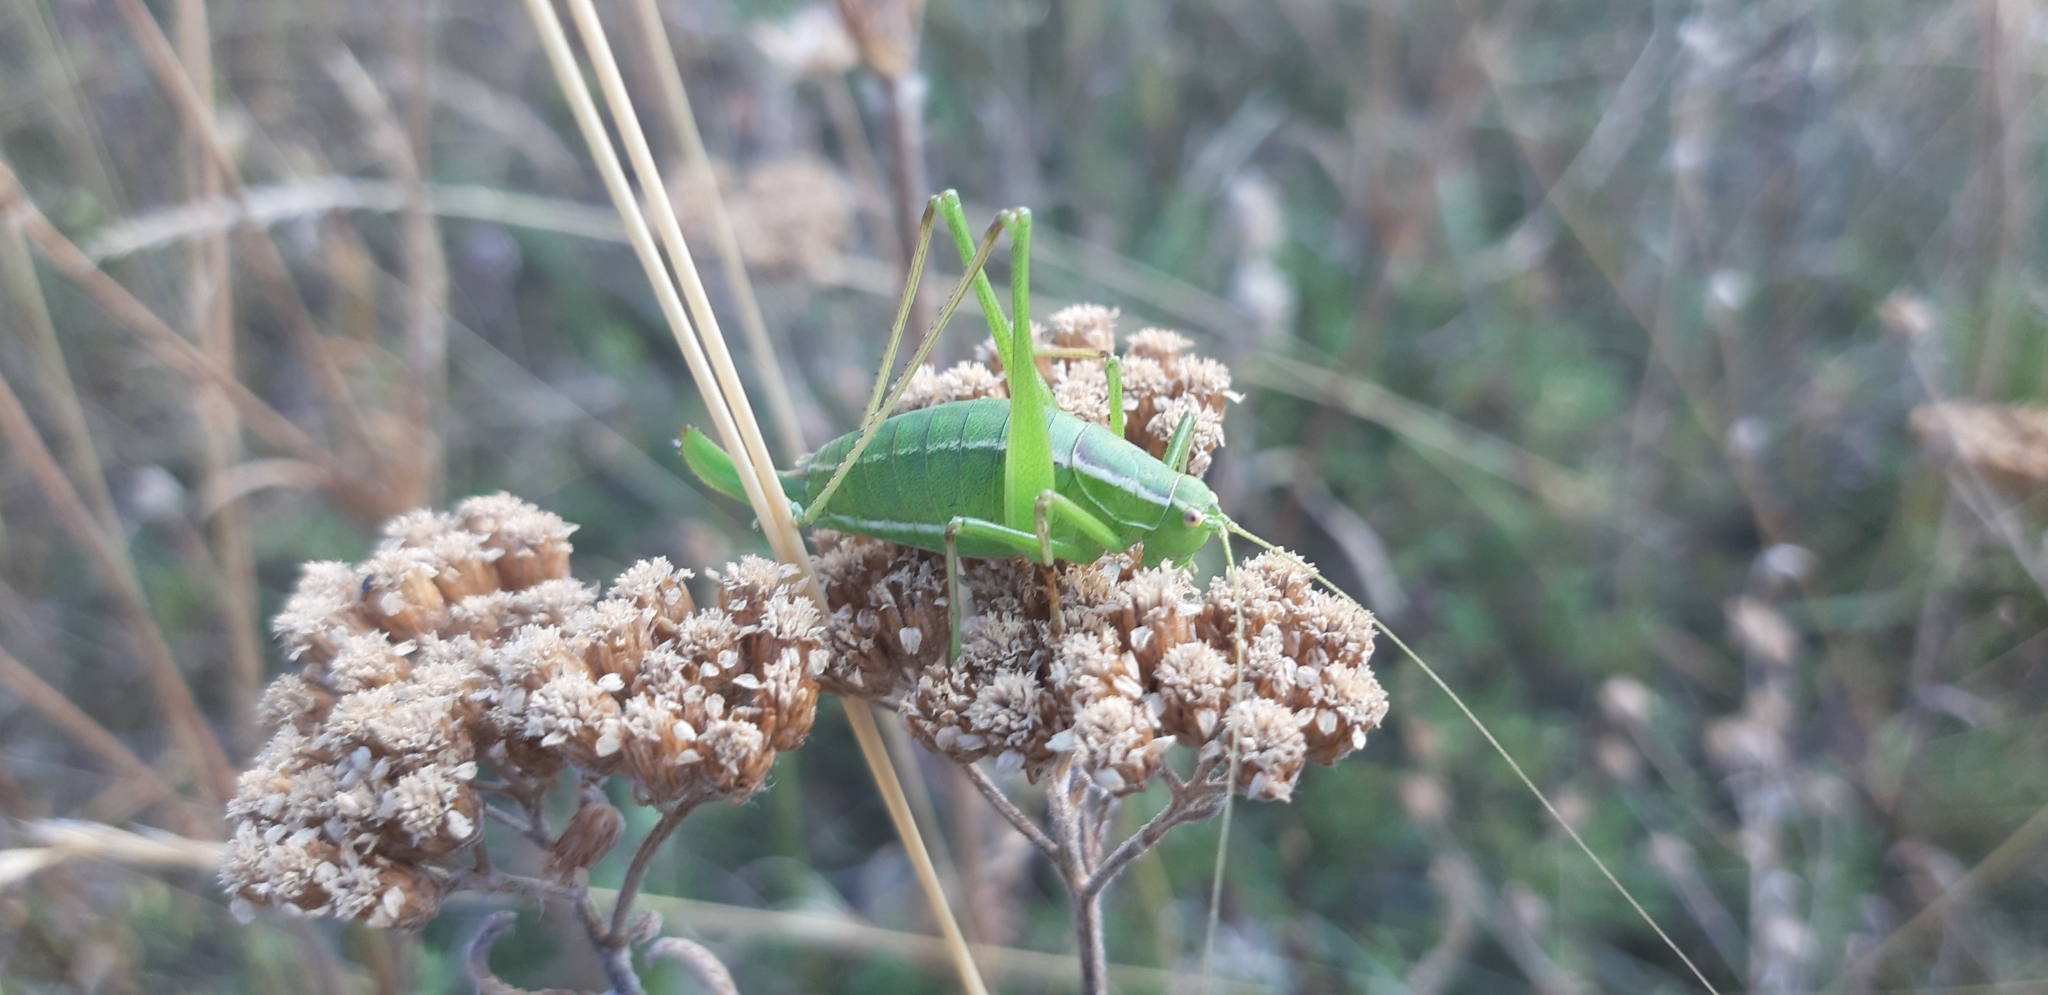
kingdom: Animalia
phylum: Arthropoda
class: Insecta
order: Orthoptera
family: Tettigoniidae
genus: Poecilimon
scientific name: Poecilimon superbus
